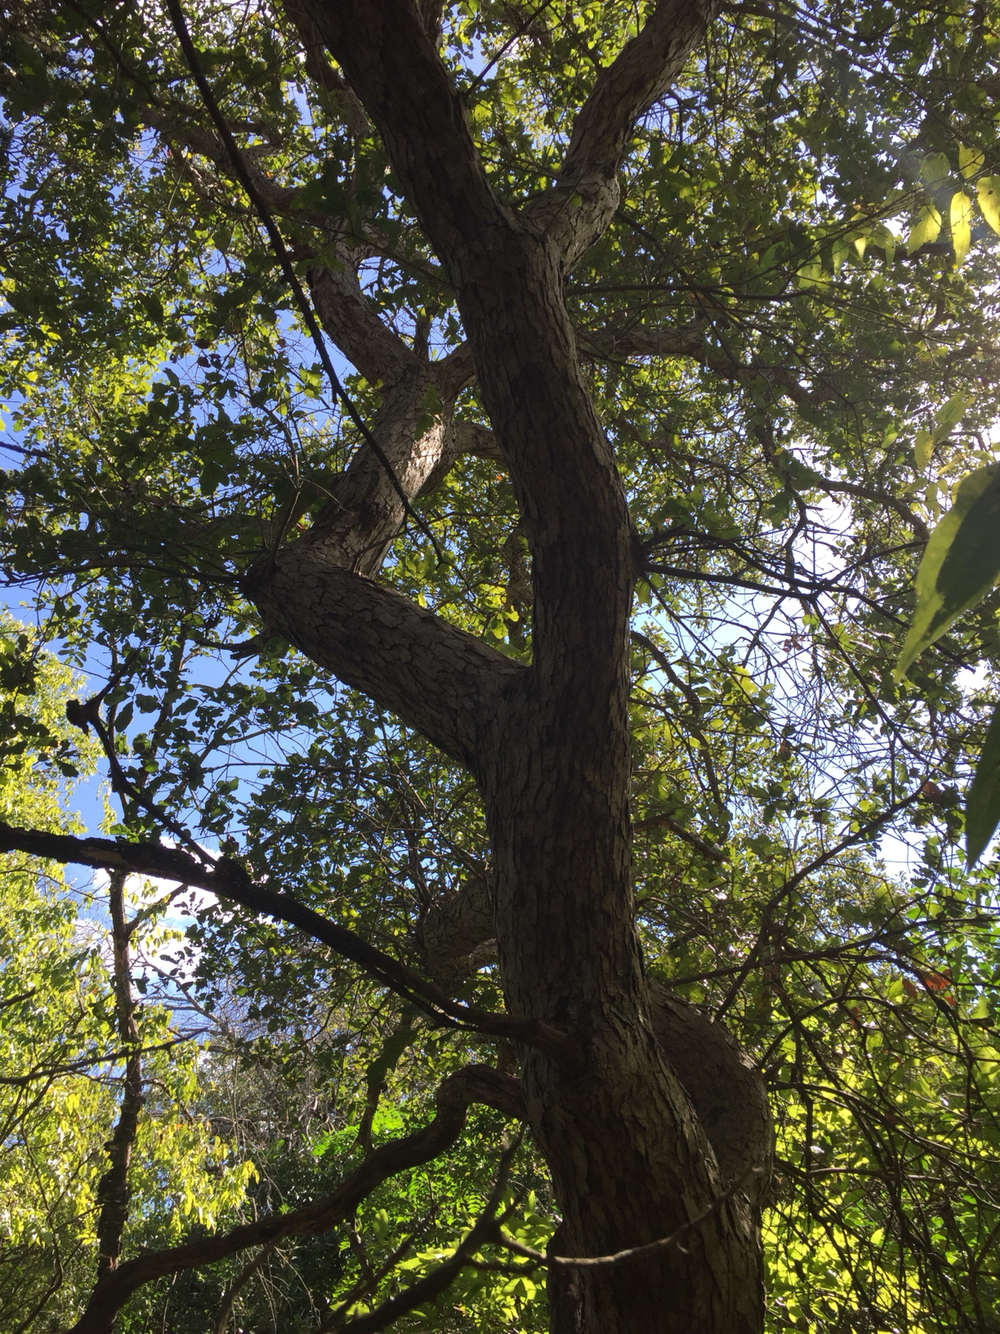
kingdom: Plantae
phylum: Tracheophyta
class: Magnoliopsida
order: Fagales
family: Fagaceae
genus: Quercus
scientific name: Quercus sinuata
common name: Durand oak
